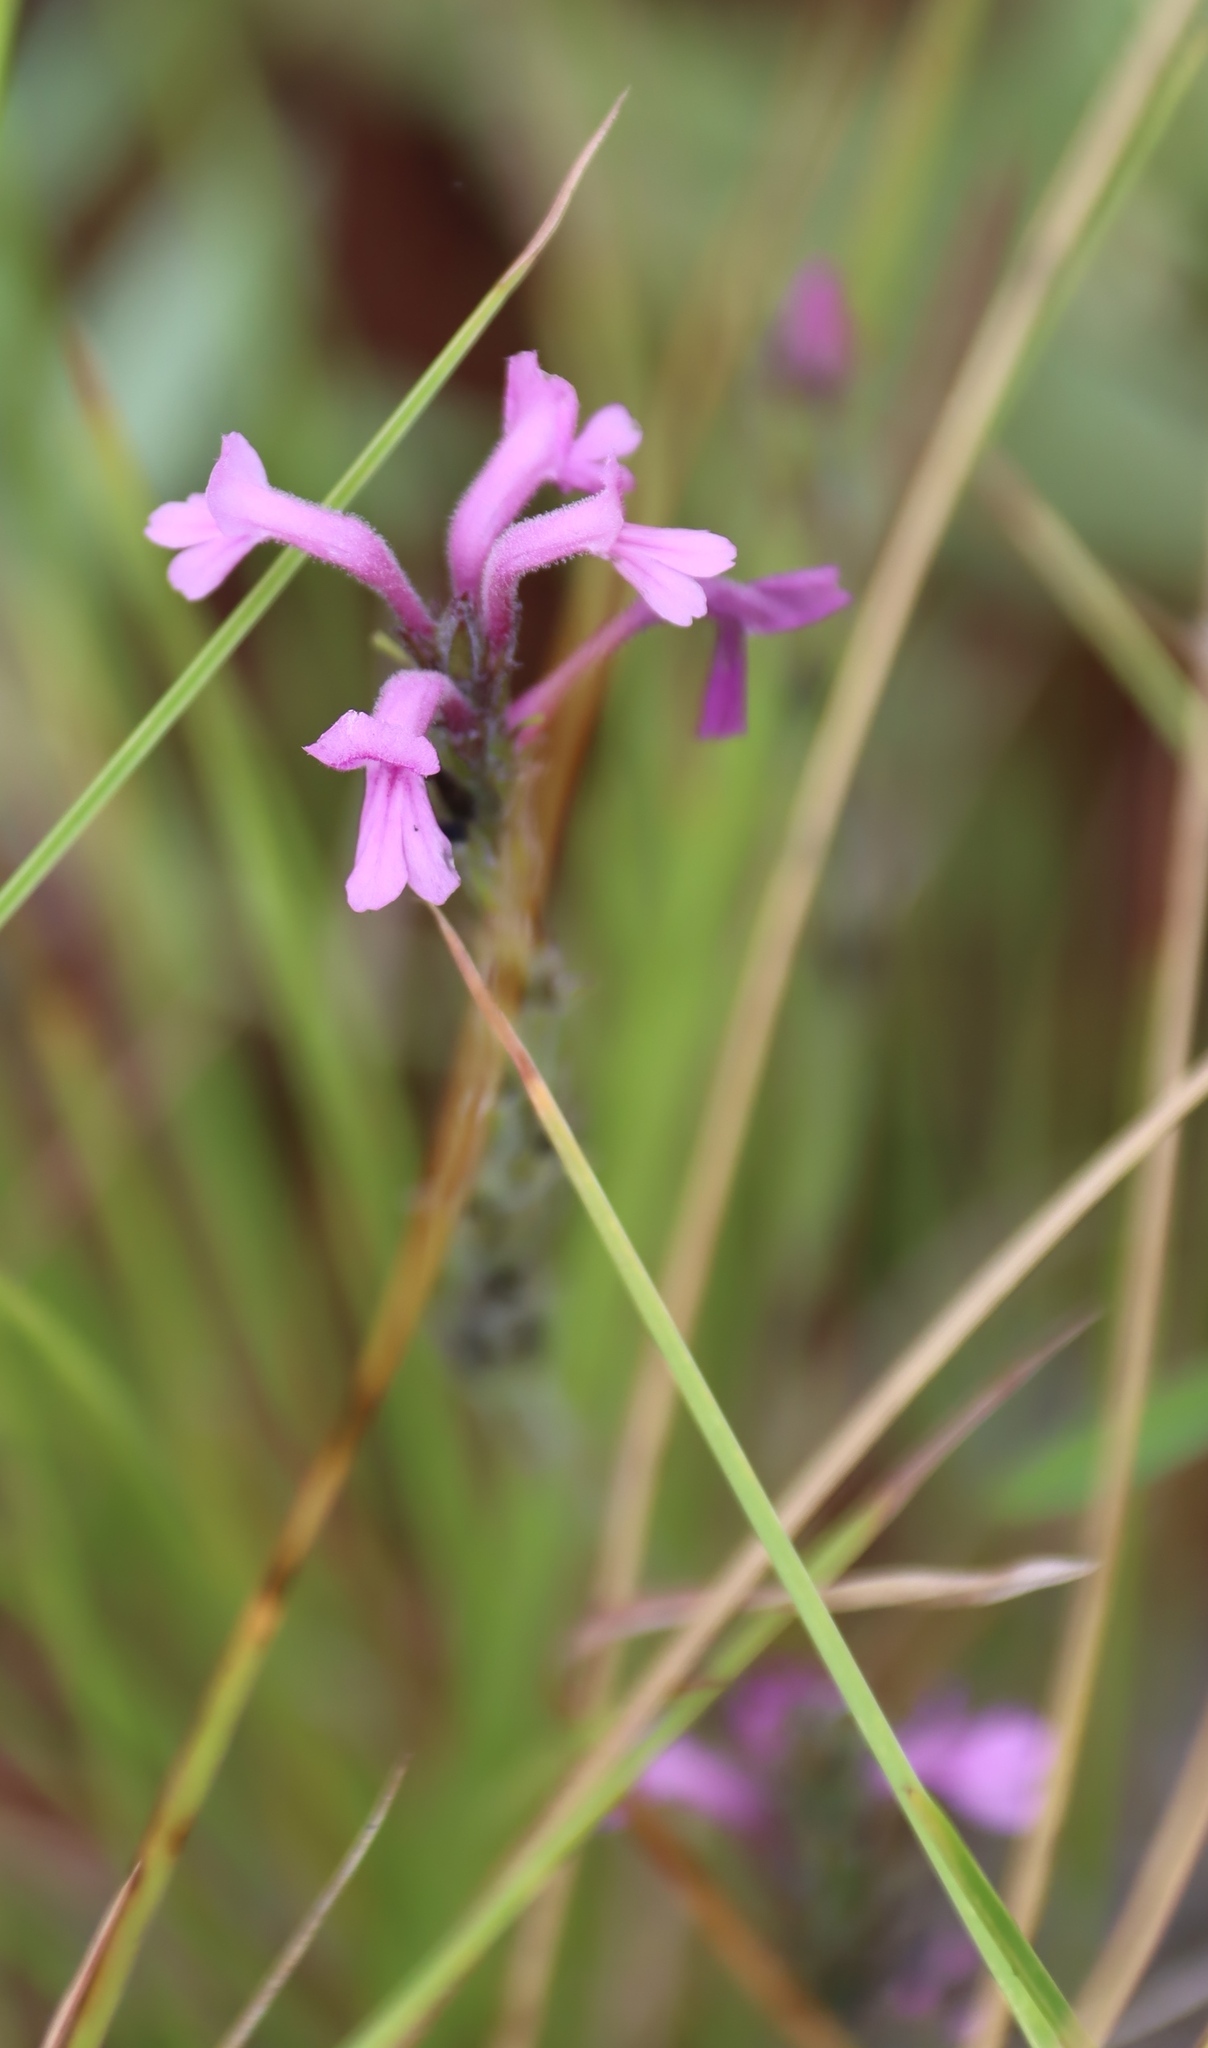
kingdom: Plantae
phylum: Tracheophyta
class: Magnoliopsida
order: Lamiales
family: Orobanchaceae
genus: Striga
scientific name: Striga bilabiata
